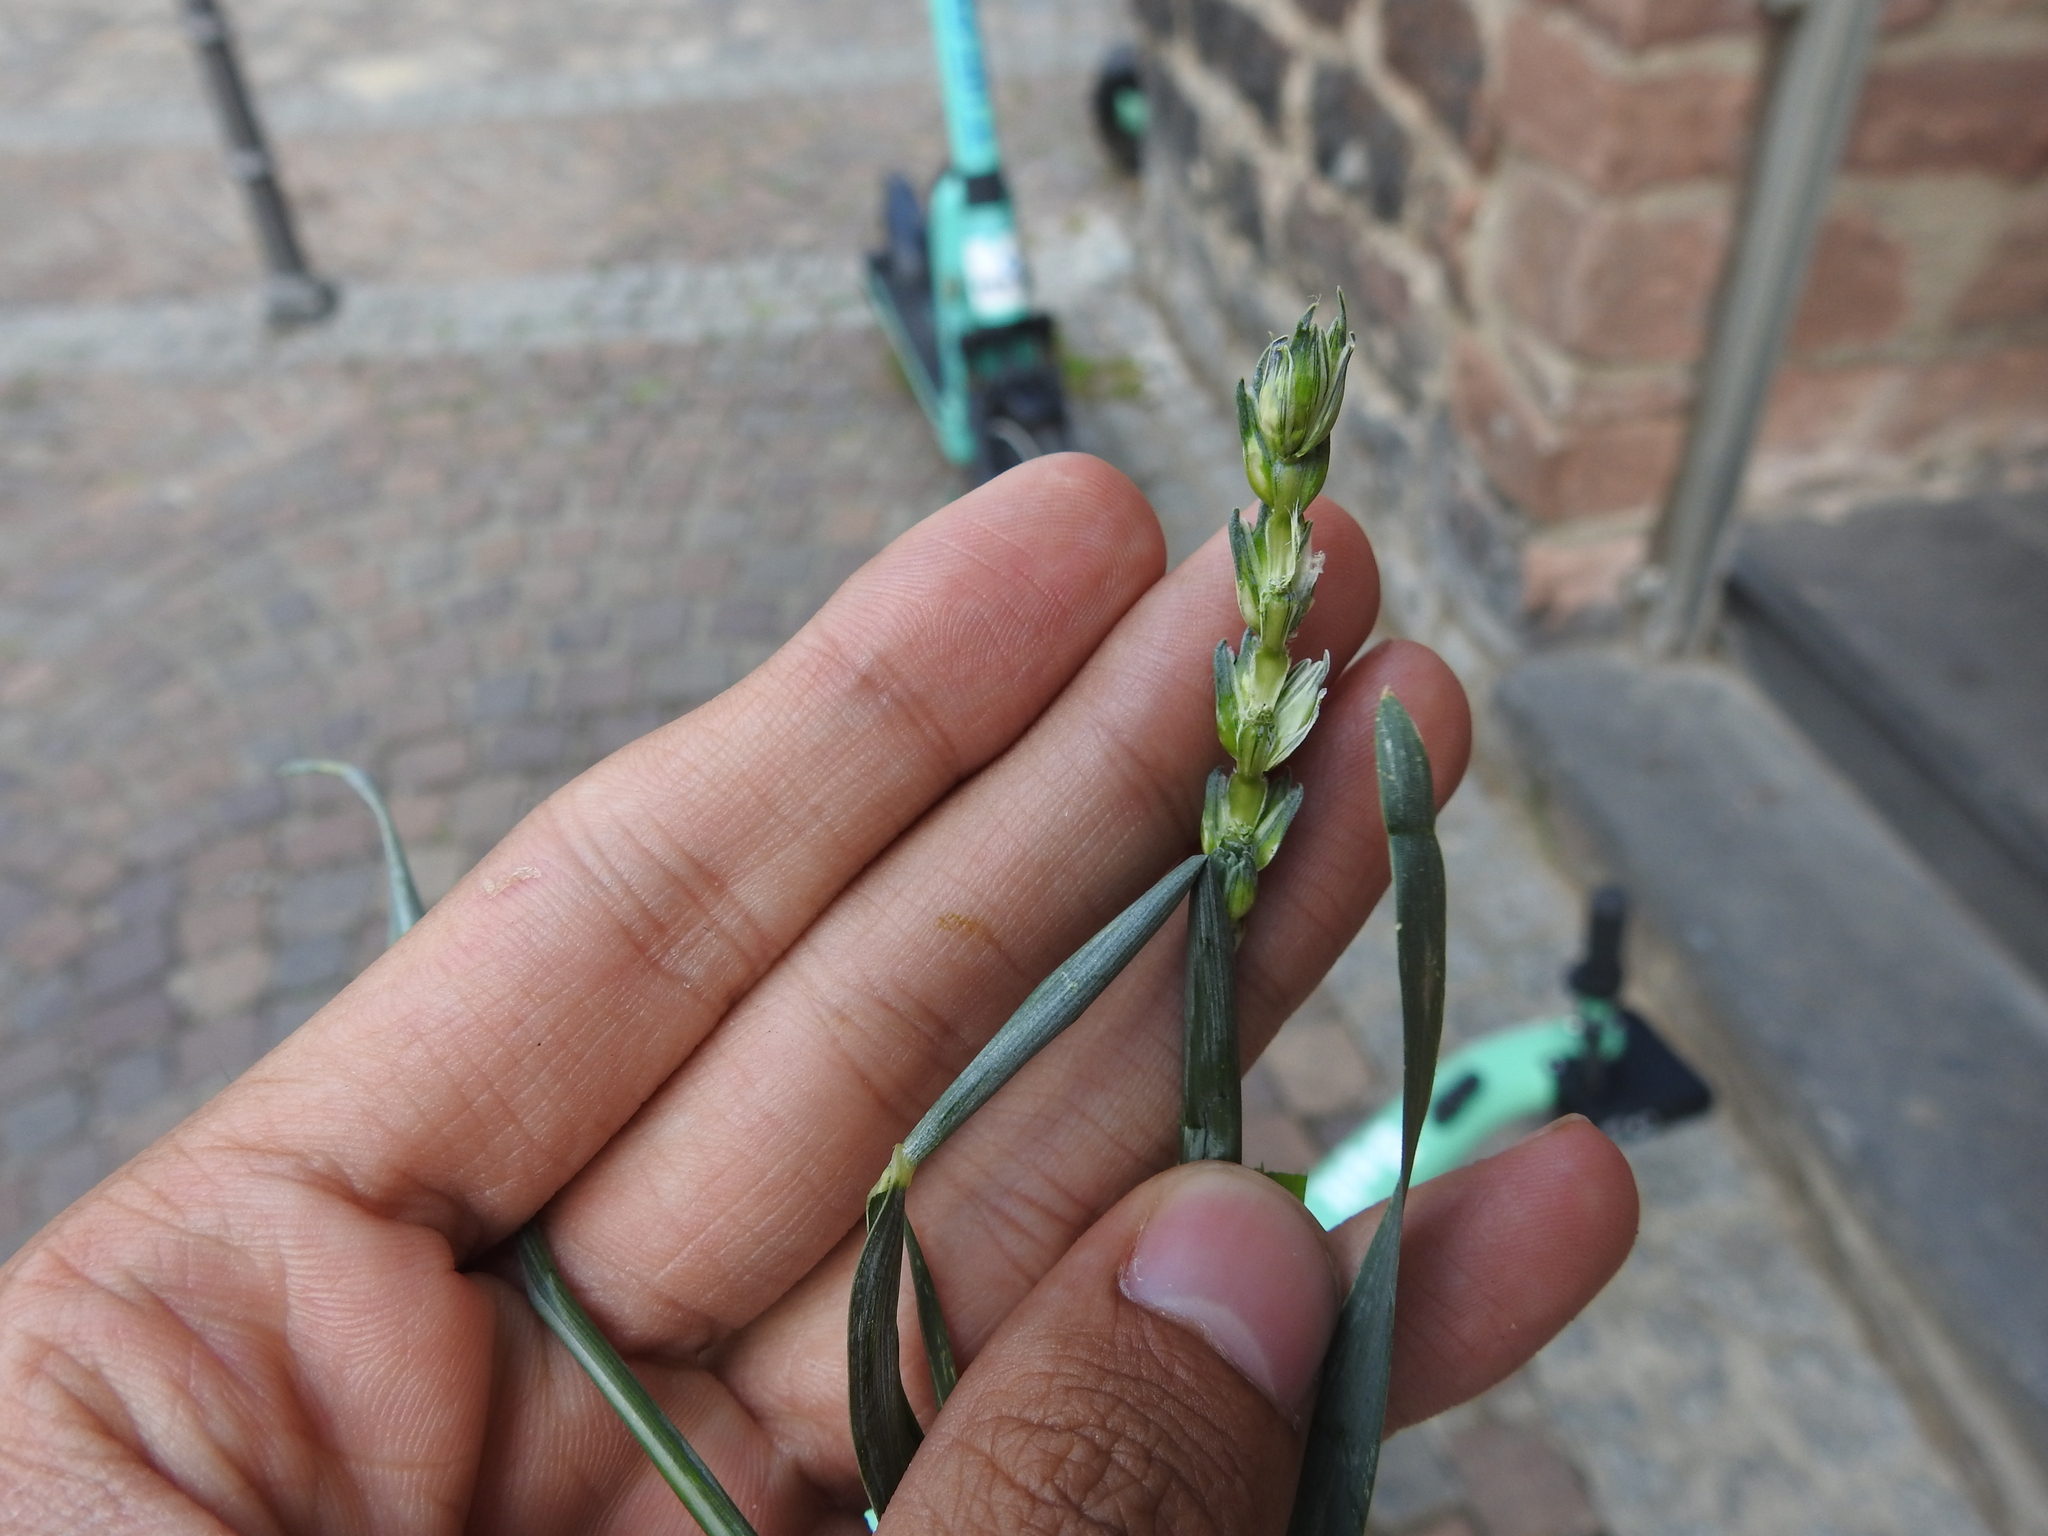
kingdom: Plantae
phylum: Tracheophyta
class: Liliopsida
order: Poales
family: Poaceae
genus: Triticum
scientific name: Triticum aestivum
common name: Common wheat
